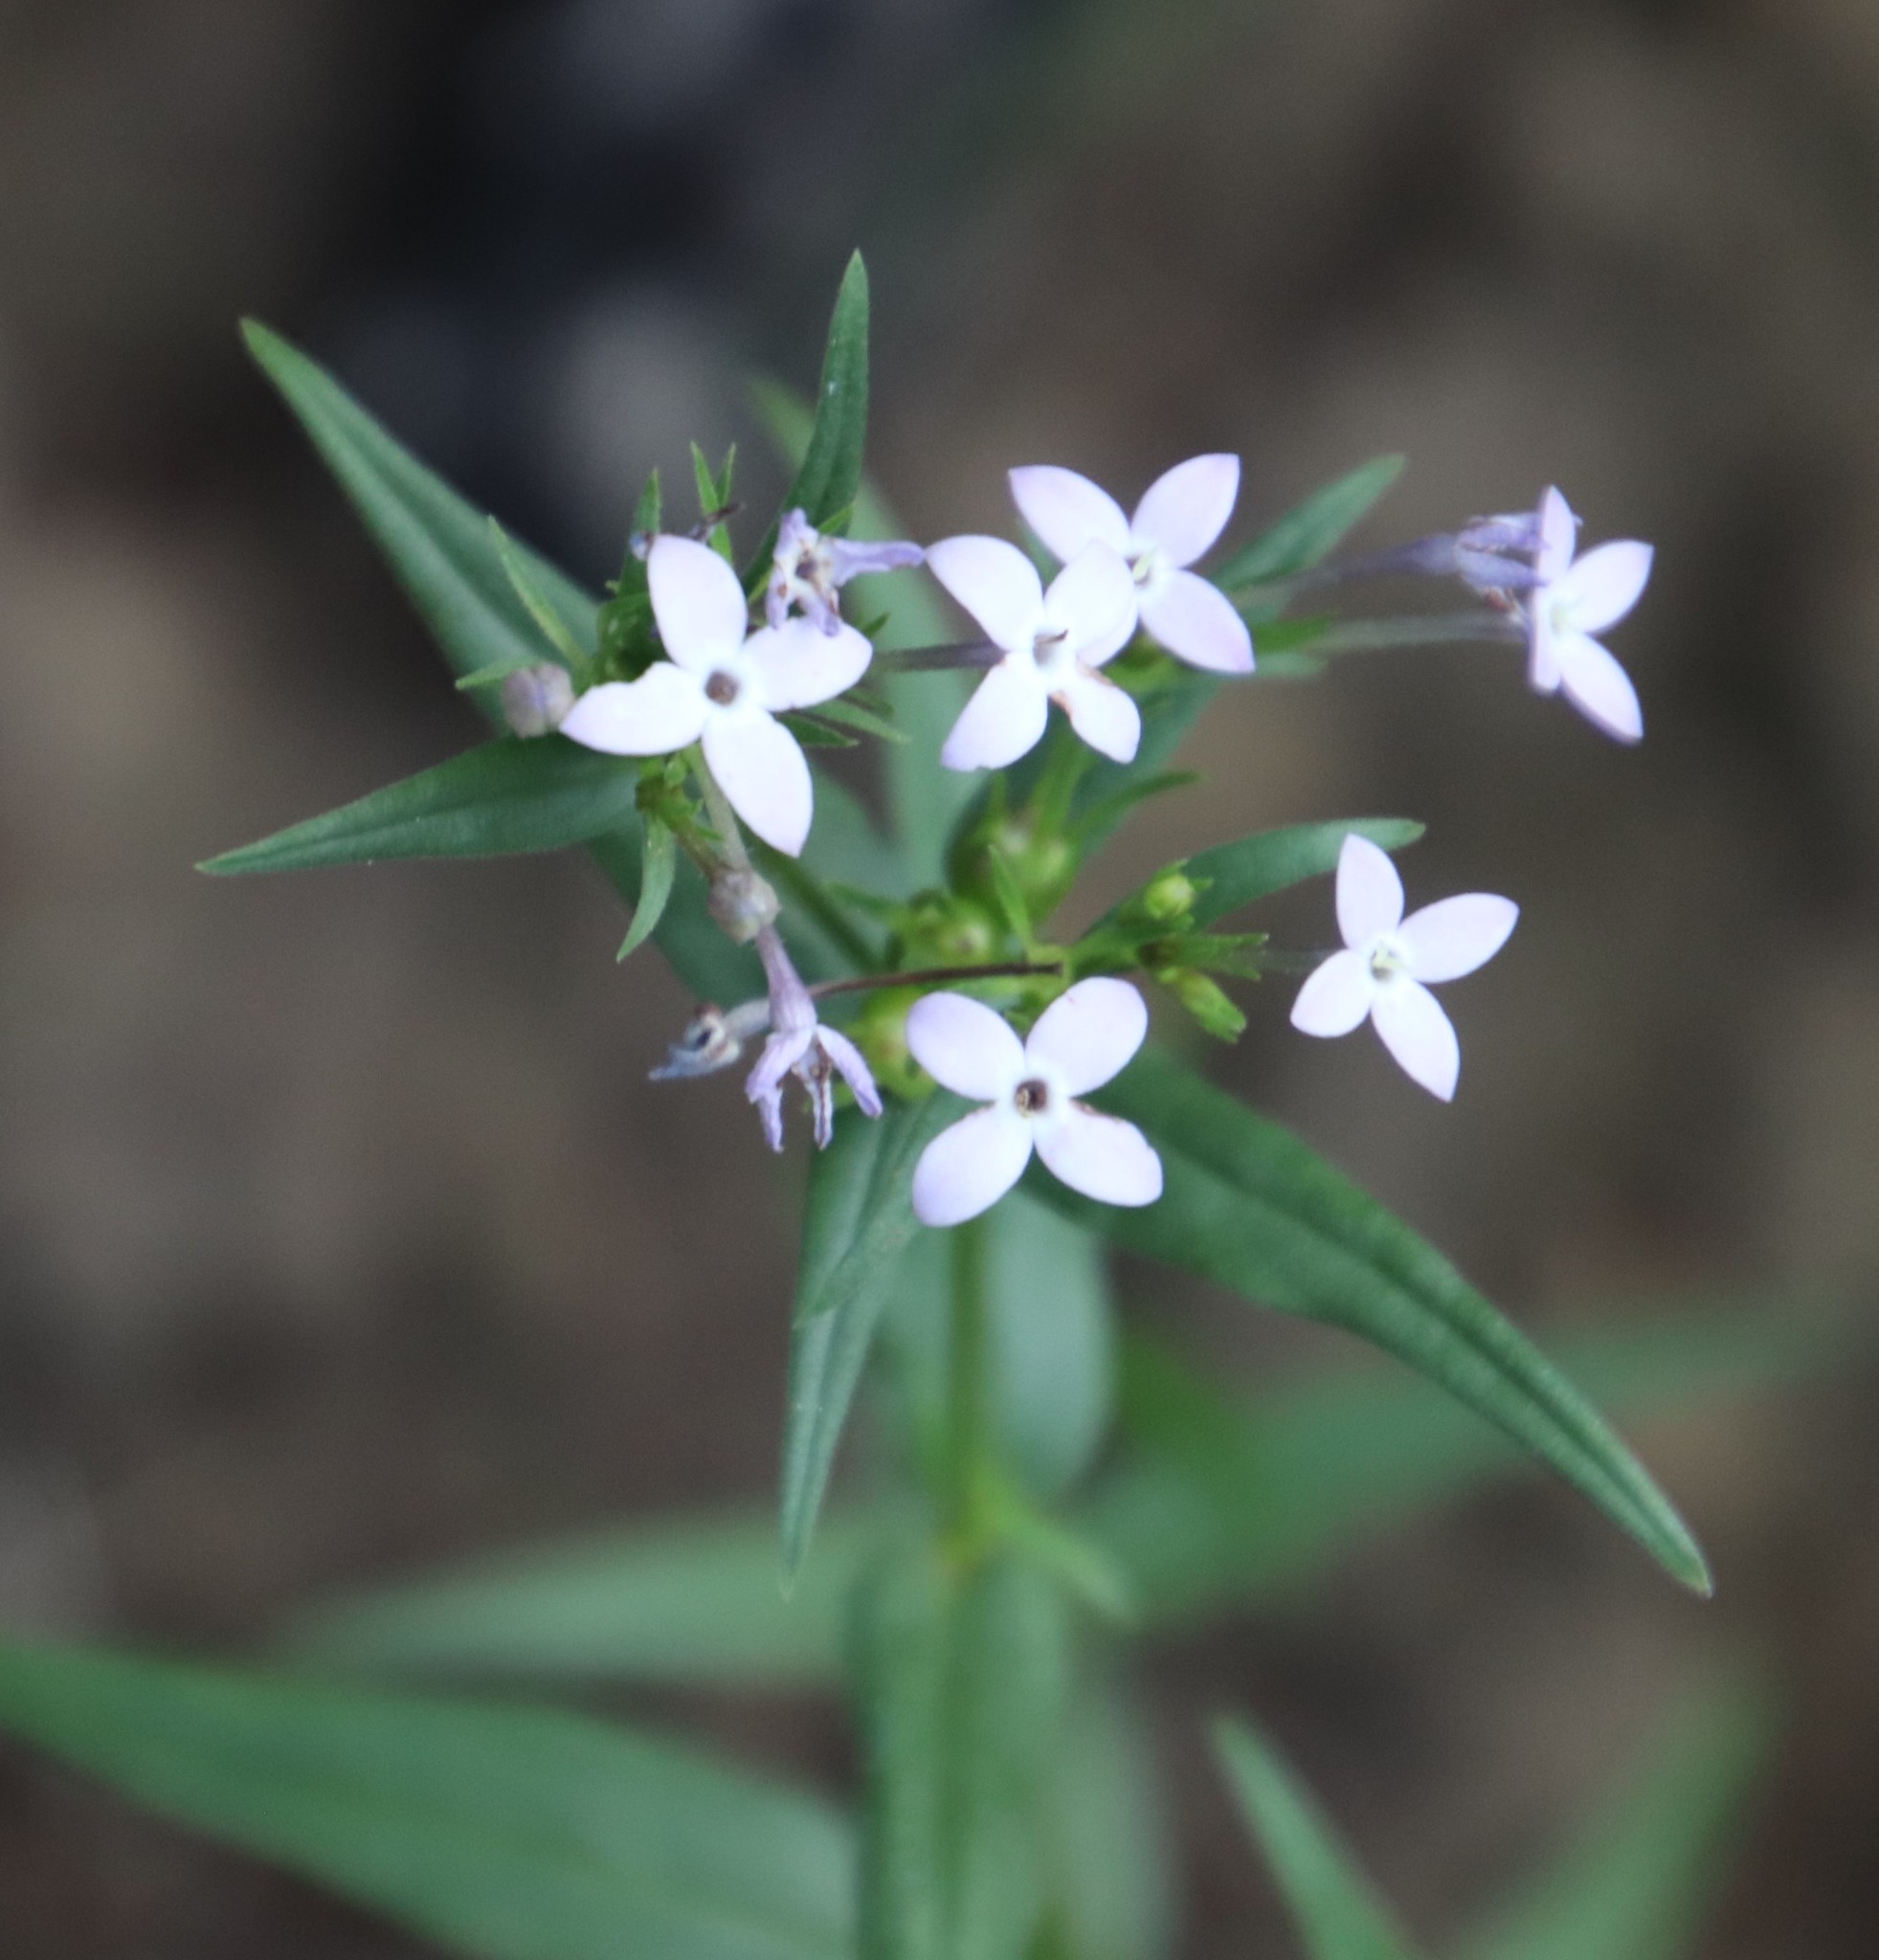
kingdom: Plantae
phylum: Tracheophyta
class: Magnoliopsida
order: Gentianales
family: Rubiaceae
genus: Conostomium
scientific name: Conostomium natalense
